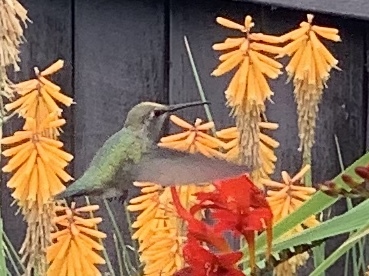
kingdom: Animalia
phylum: Chordata
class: Aves
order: Apodiformes
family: Trochilidae
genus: Calypte
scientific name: Calypte anna
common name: Anna's hummingbird
